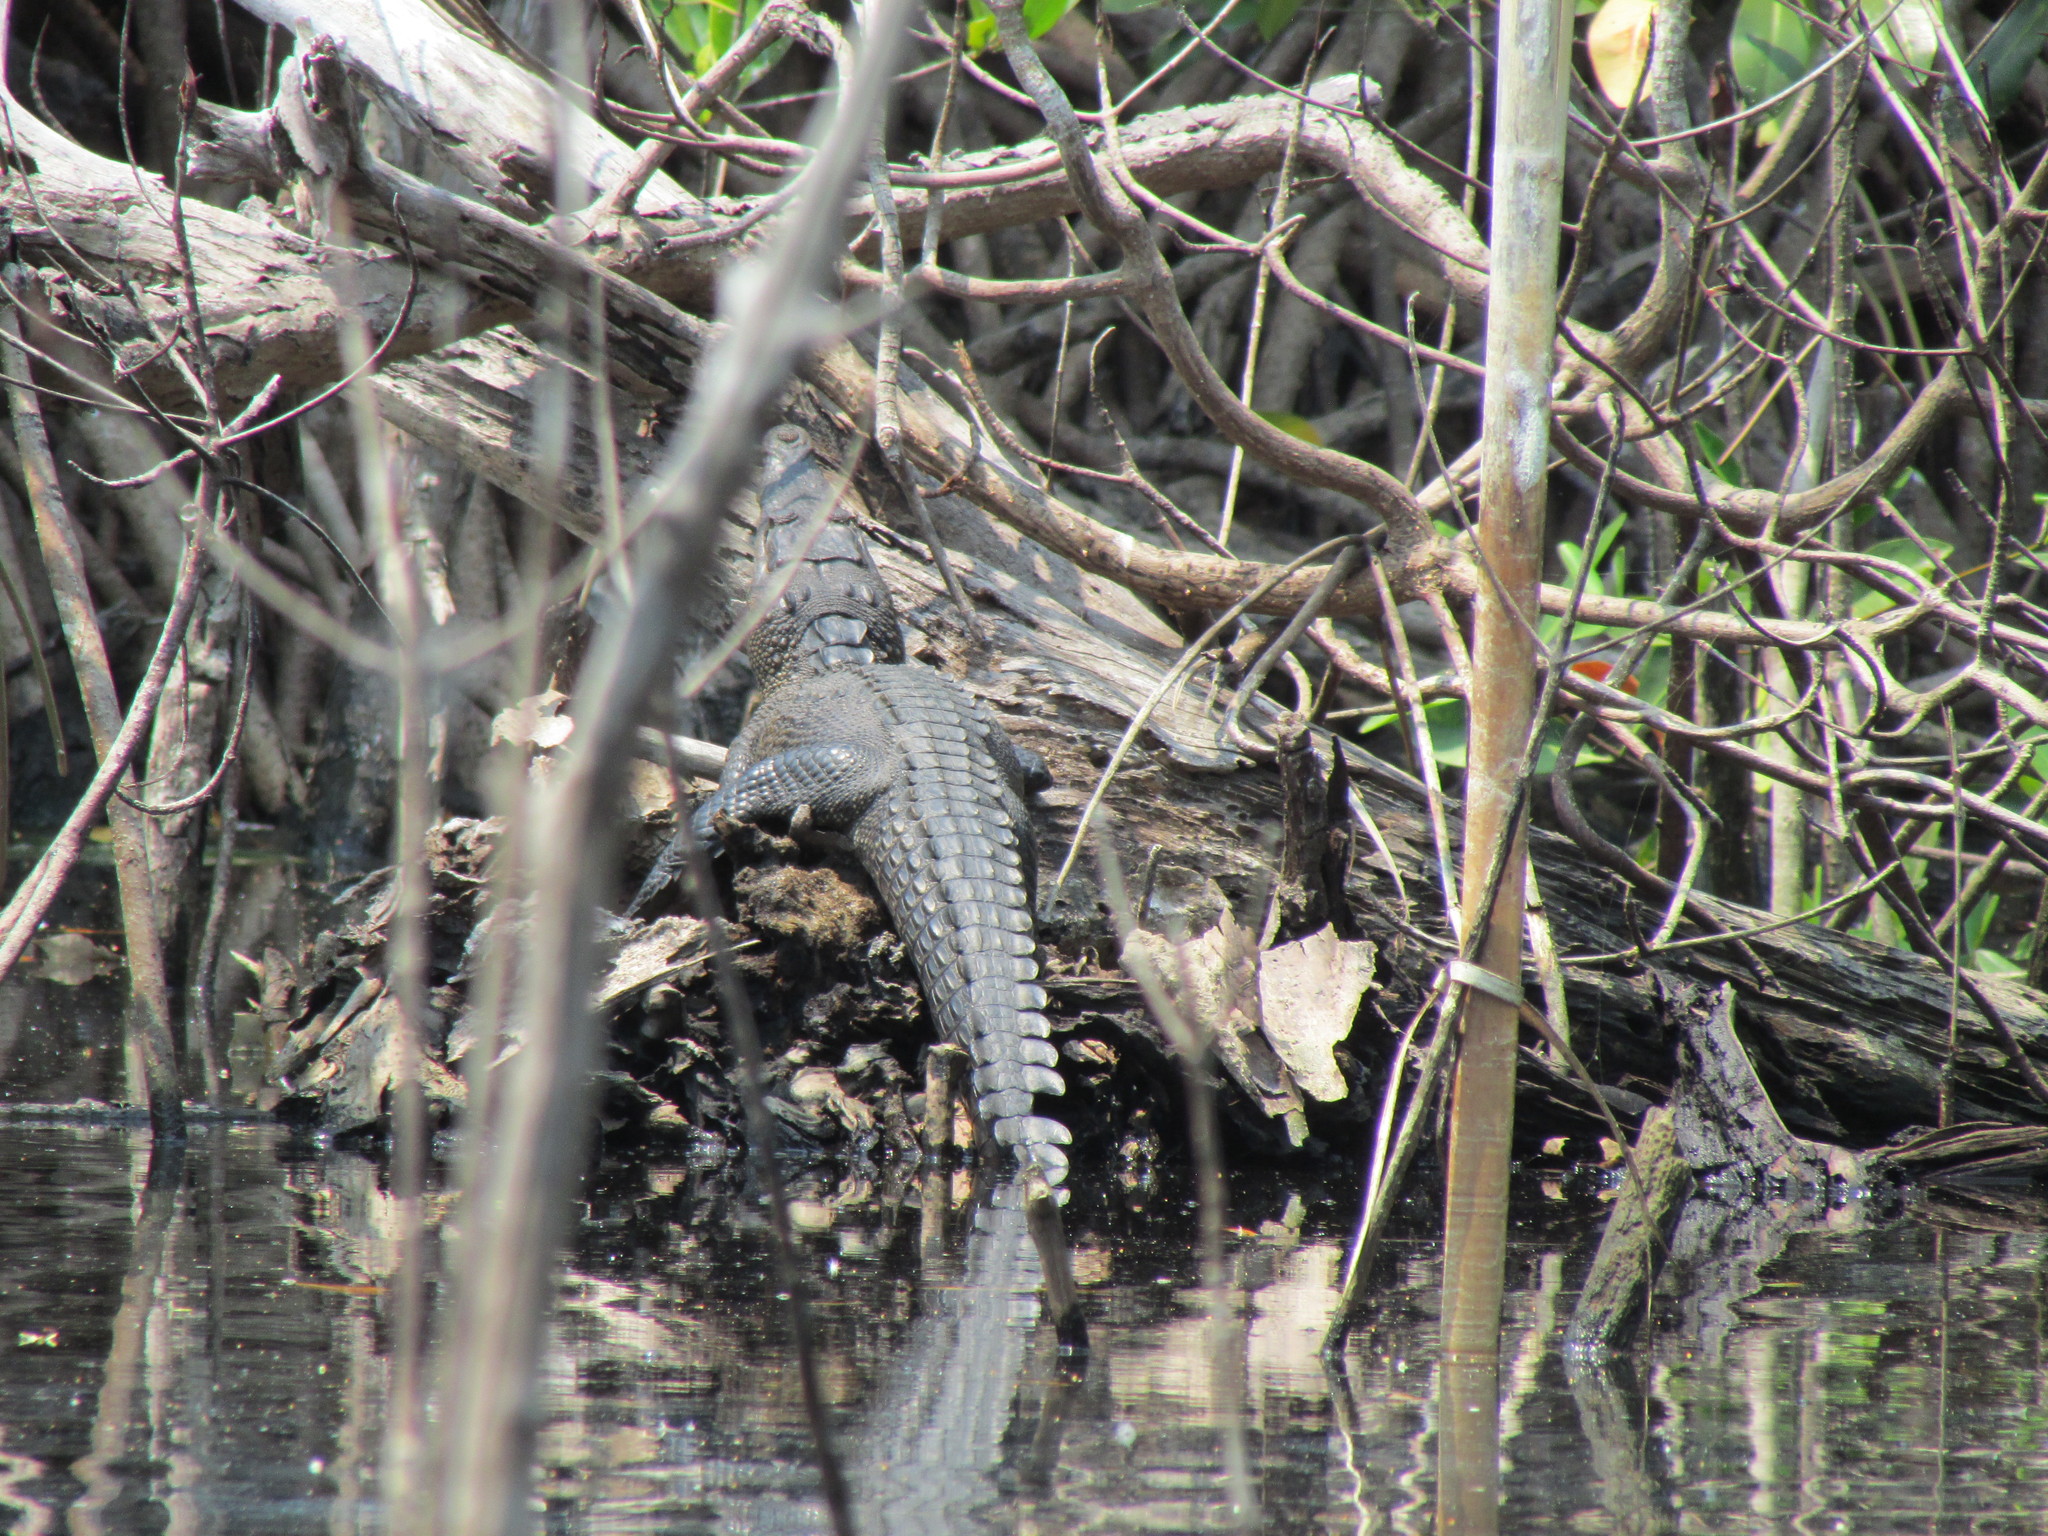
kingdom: Animalia
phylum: Chordata
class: Crocodylia
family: Crocodylidae
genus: Crocodylus
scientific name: Crocodylus acutus
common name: American crocodile
